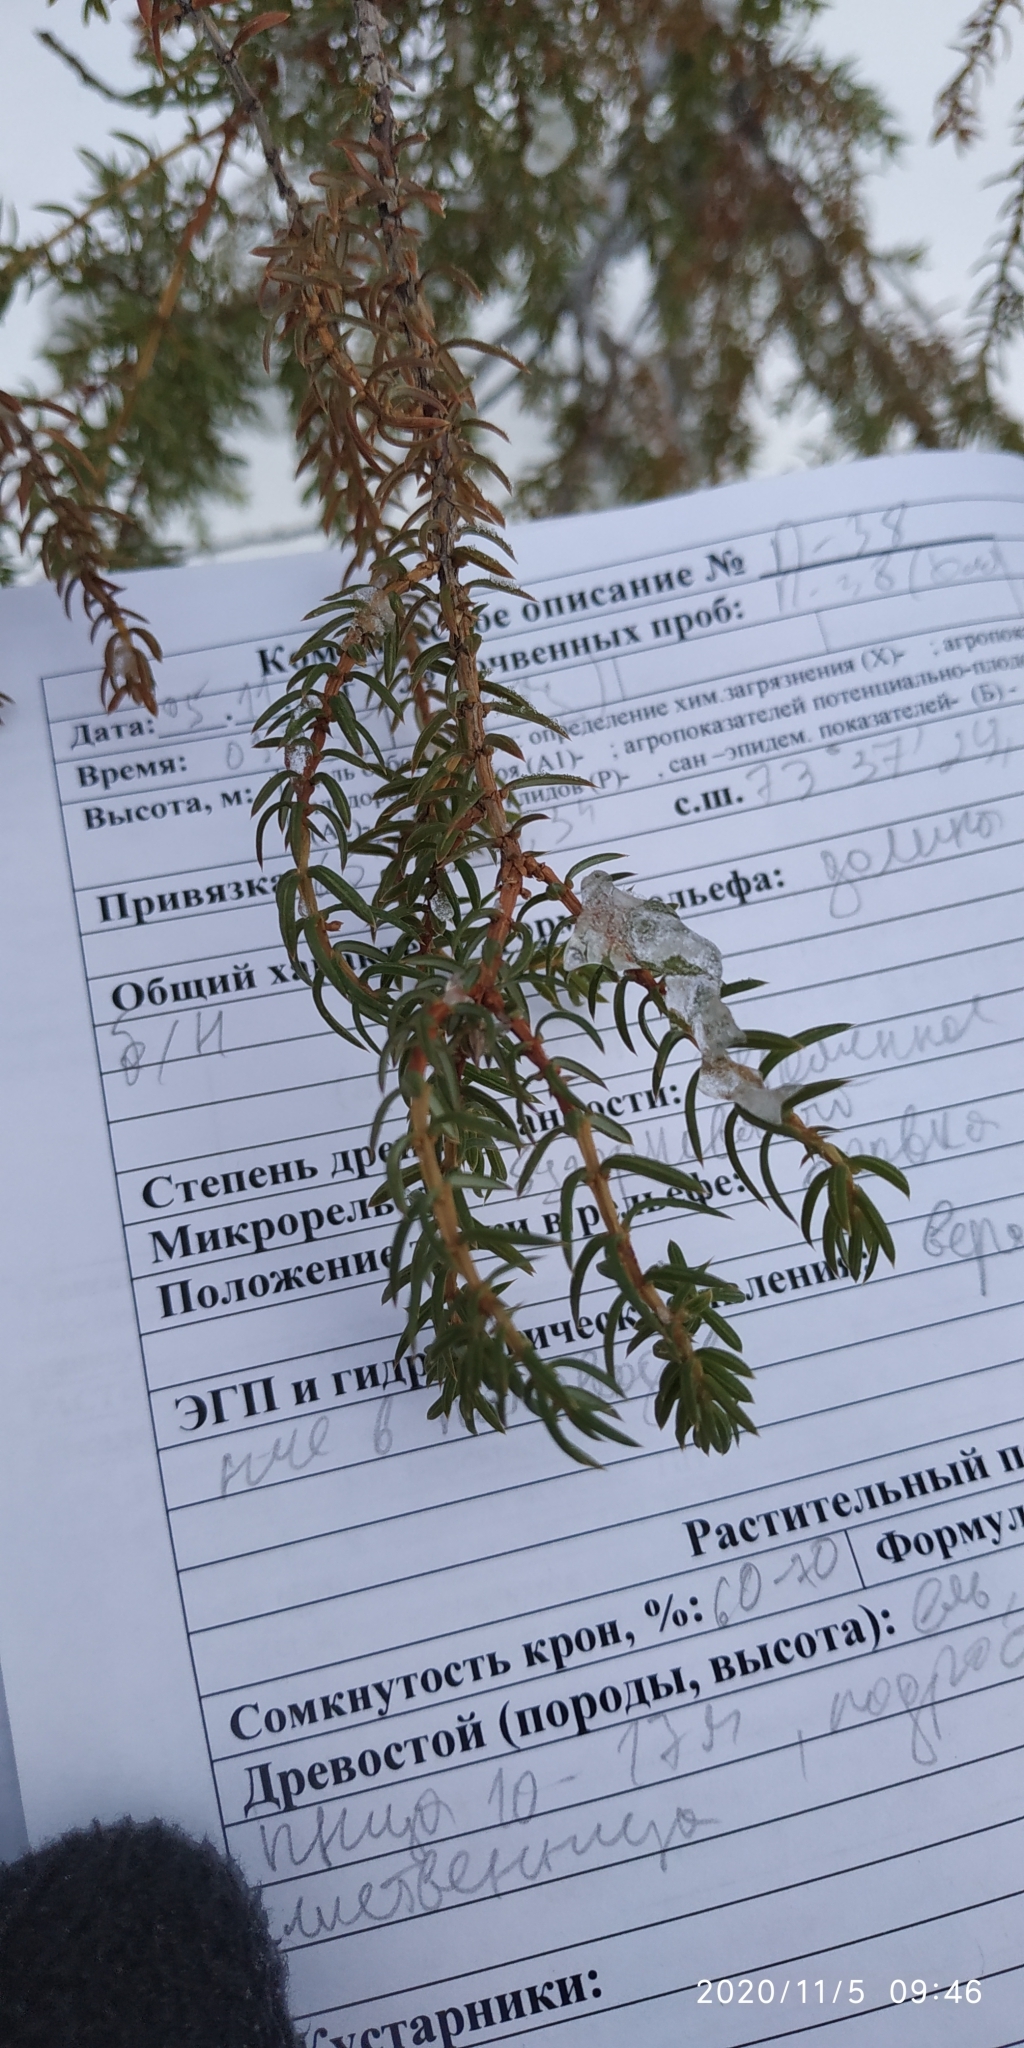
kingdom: Plantae
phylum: Tracheophyta
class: Pinopsida
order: Pinales
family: Cupressaceae
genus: Juniperus
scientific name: Juniperus communis
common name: Common juniper
